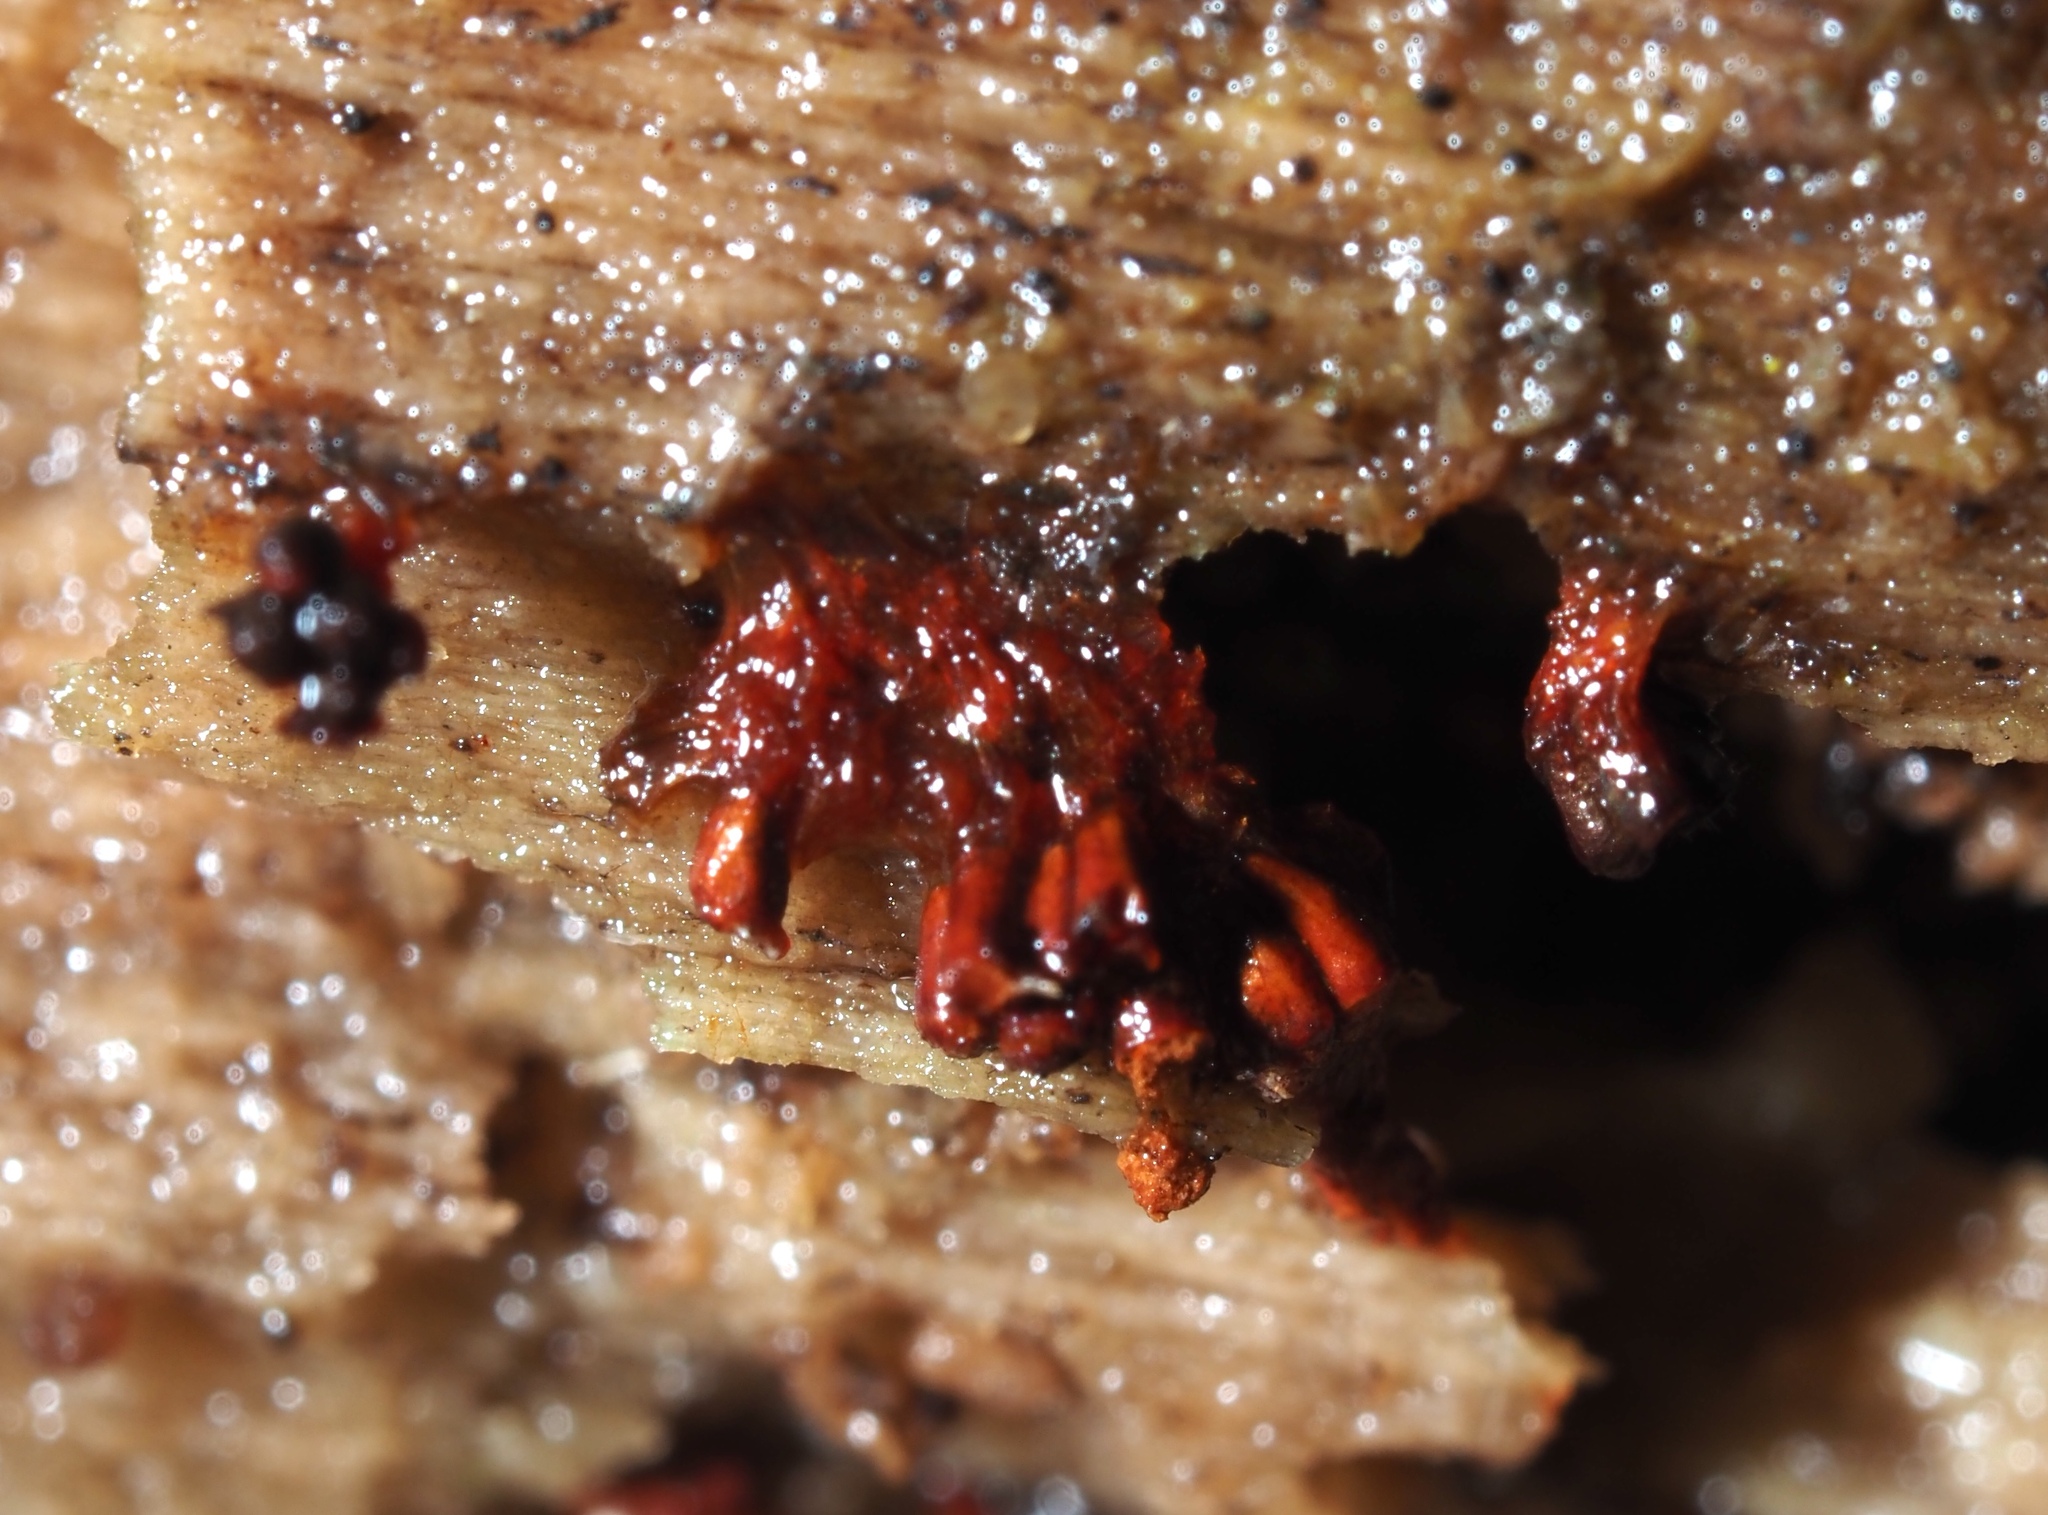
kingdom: Protozoa
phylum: Mycetozoa
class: Myxomycetes
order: Trichiales
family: Trichiaceae
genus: Metatrichia
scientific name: Metatrichia vesparia
